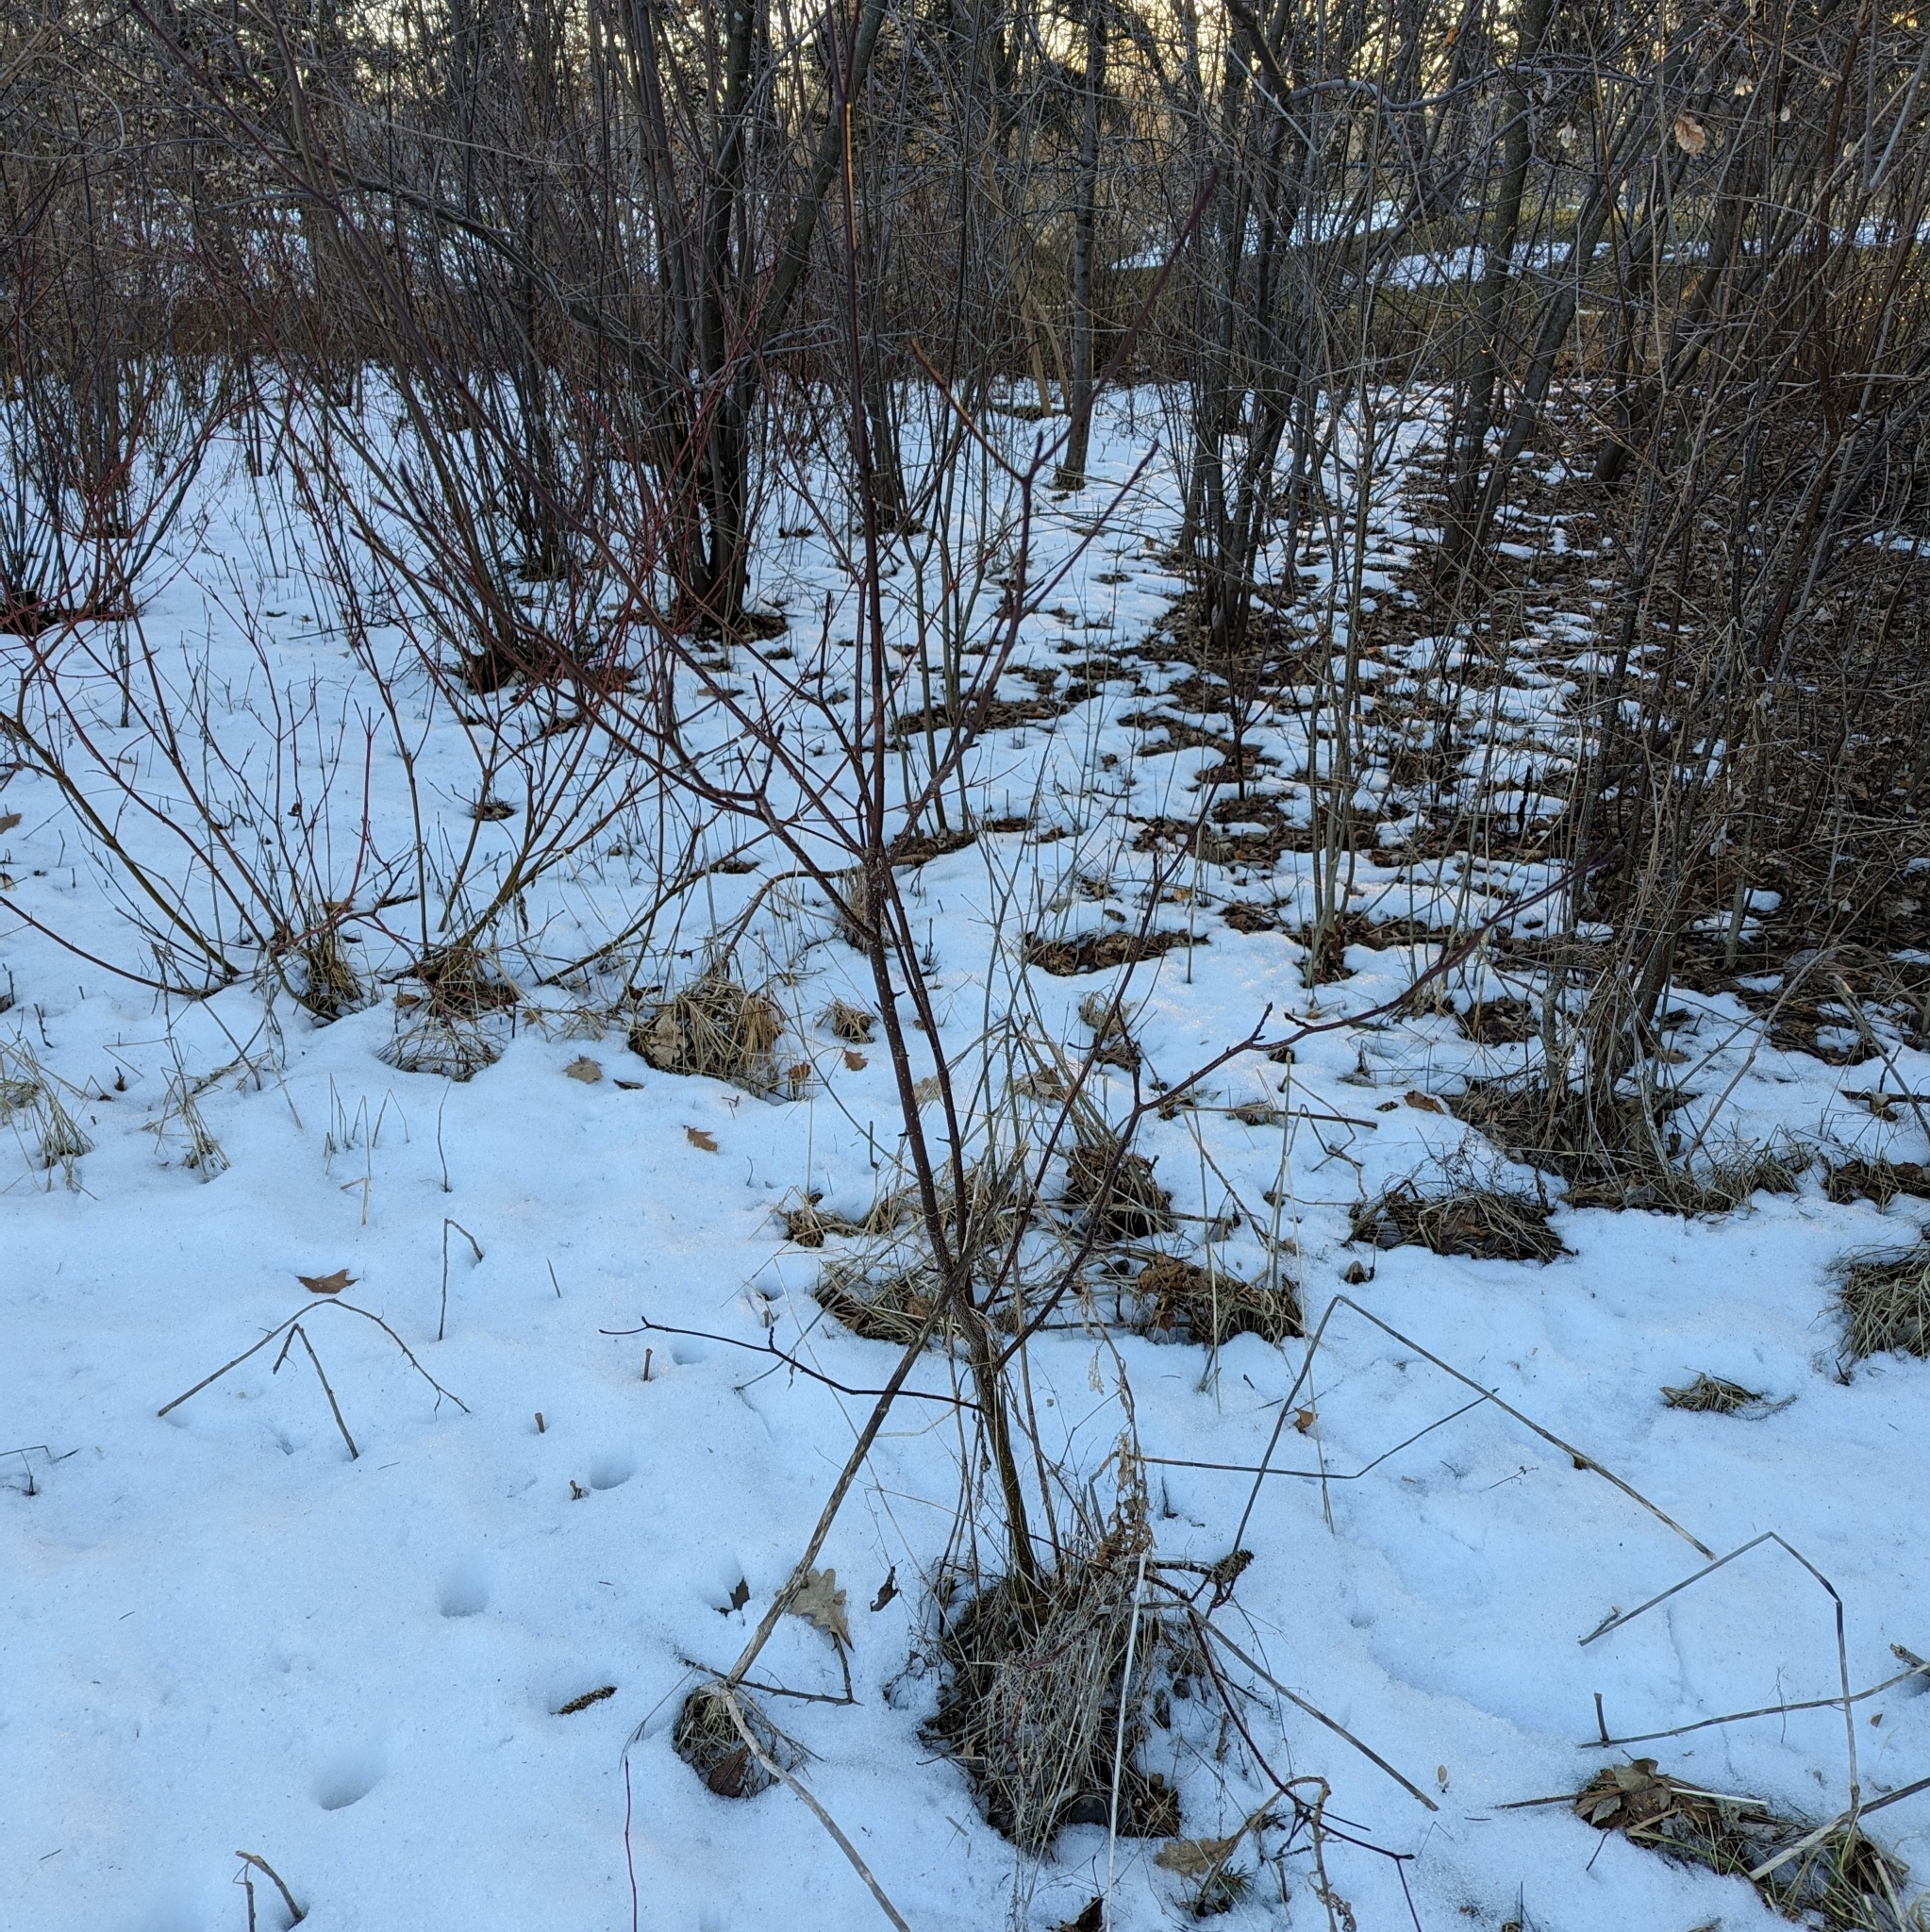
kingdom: Plantae
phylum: Tracheophyta
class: Magnoliopsida
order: Cornales
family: Cornaceae
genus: Cornus
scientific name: Cornus alternifolia
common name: Pagoda dogwood
